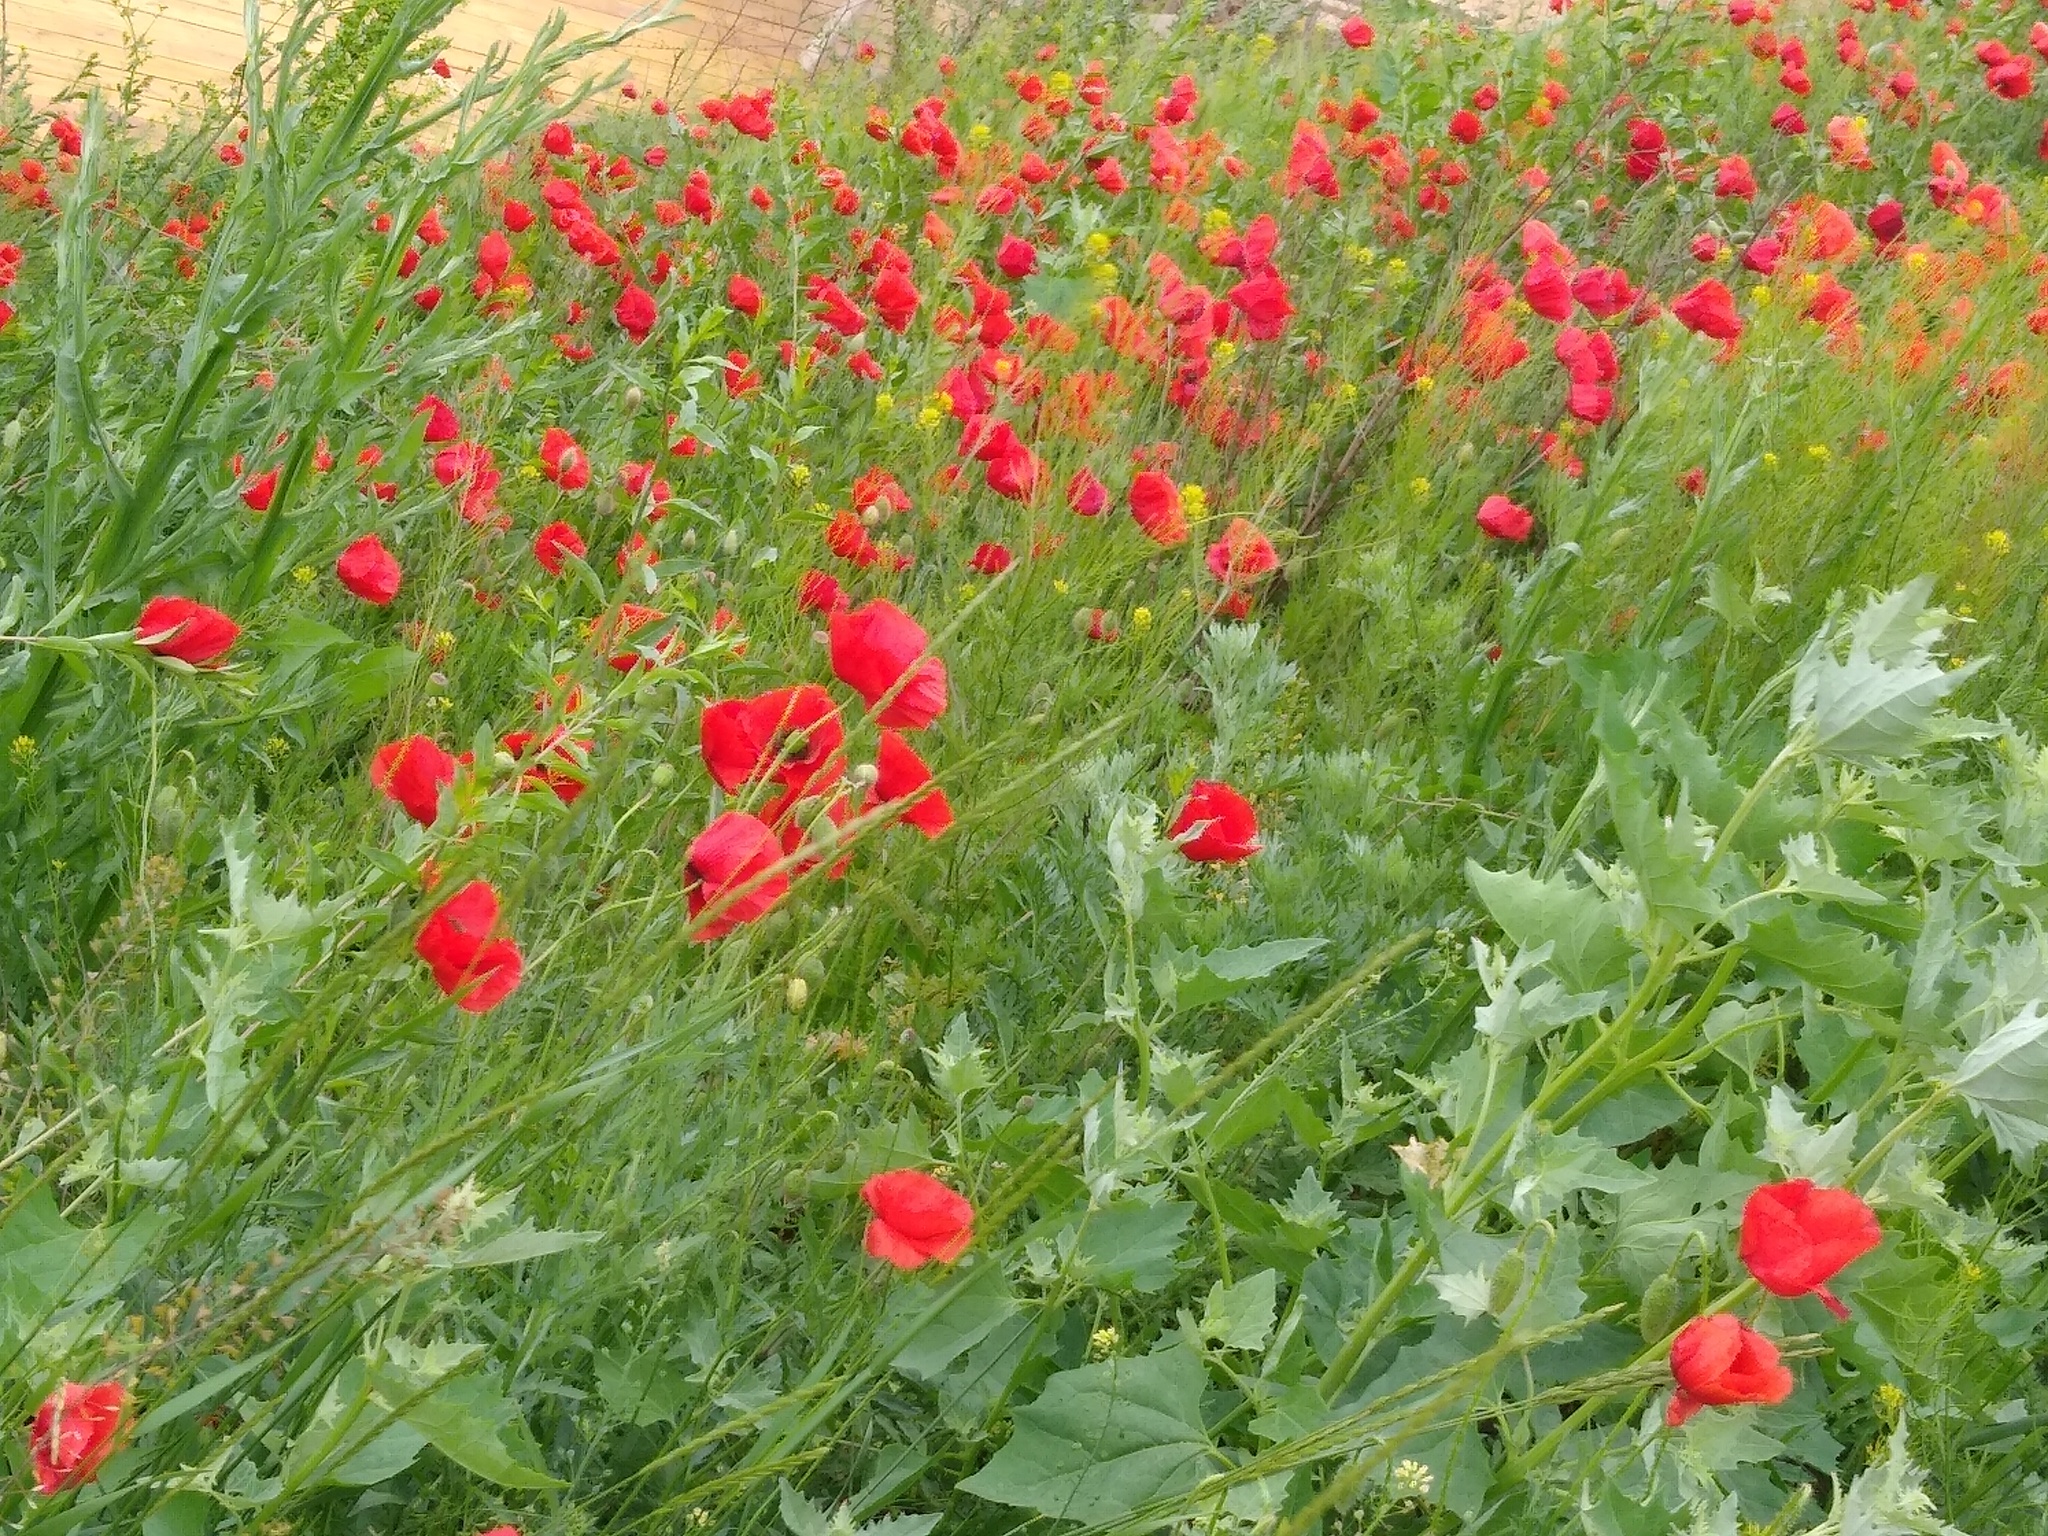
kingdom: Plantae
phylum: Tracheophyta
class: Magnoliopsida
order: Ranunculales
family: Papaveraceae
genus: Papaver
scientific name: Papaver rhoeas
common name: Corn poppy
